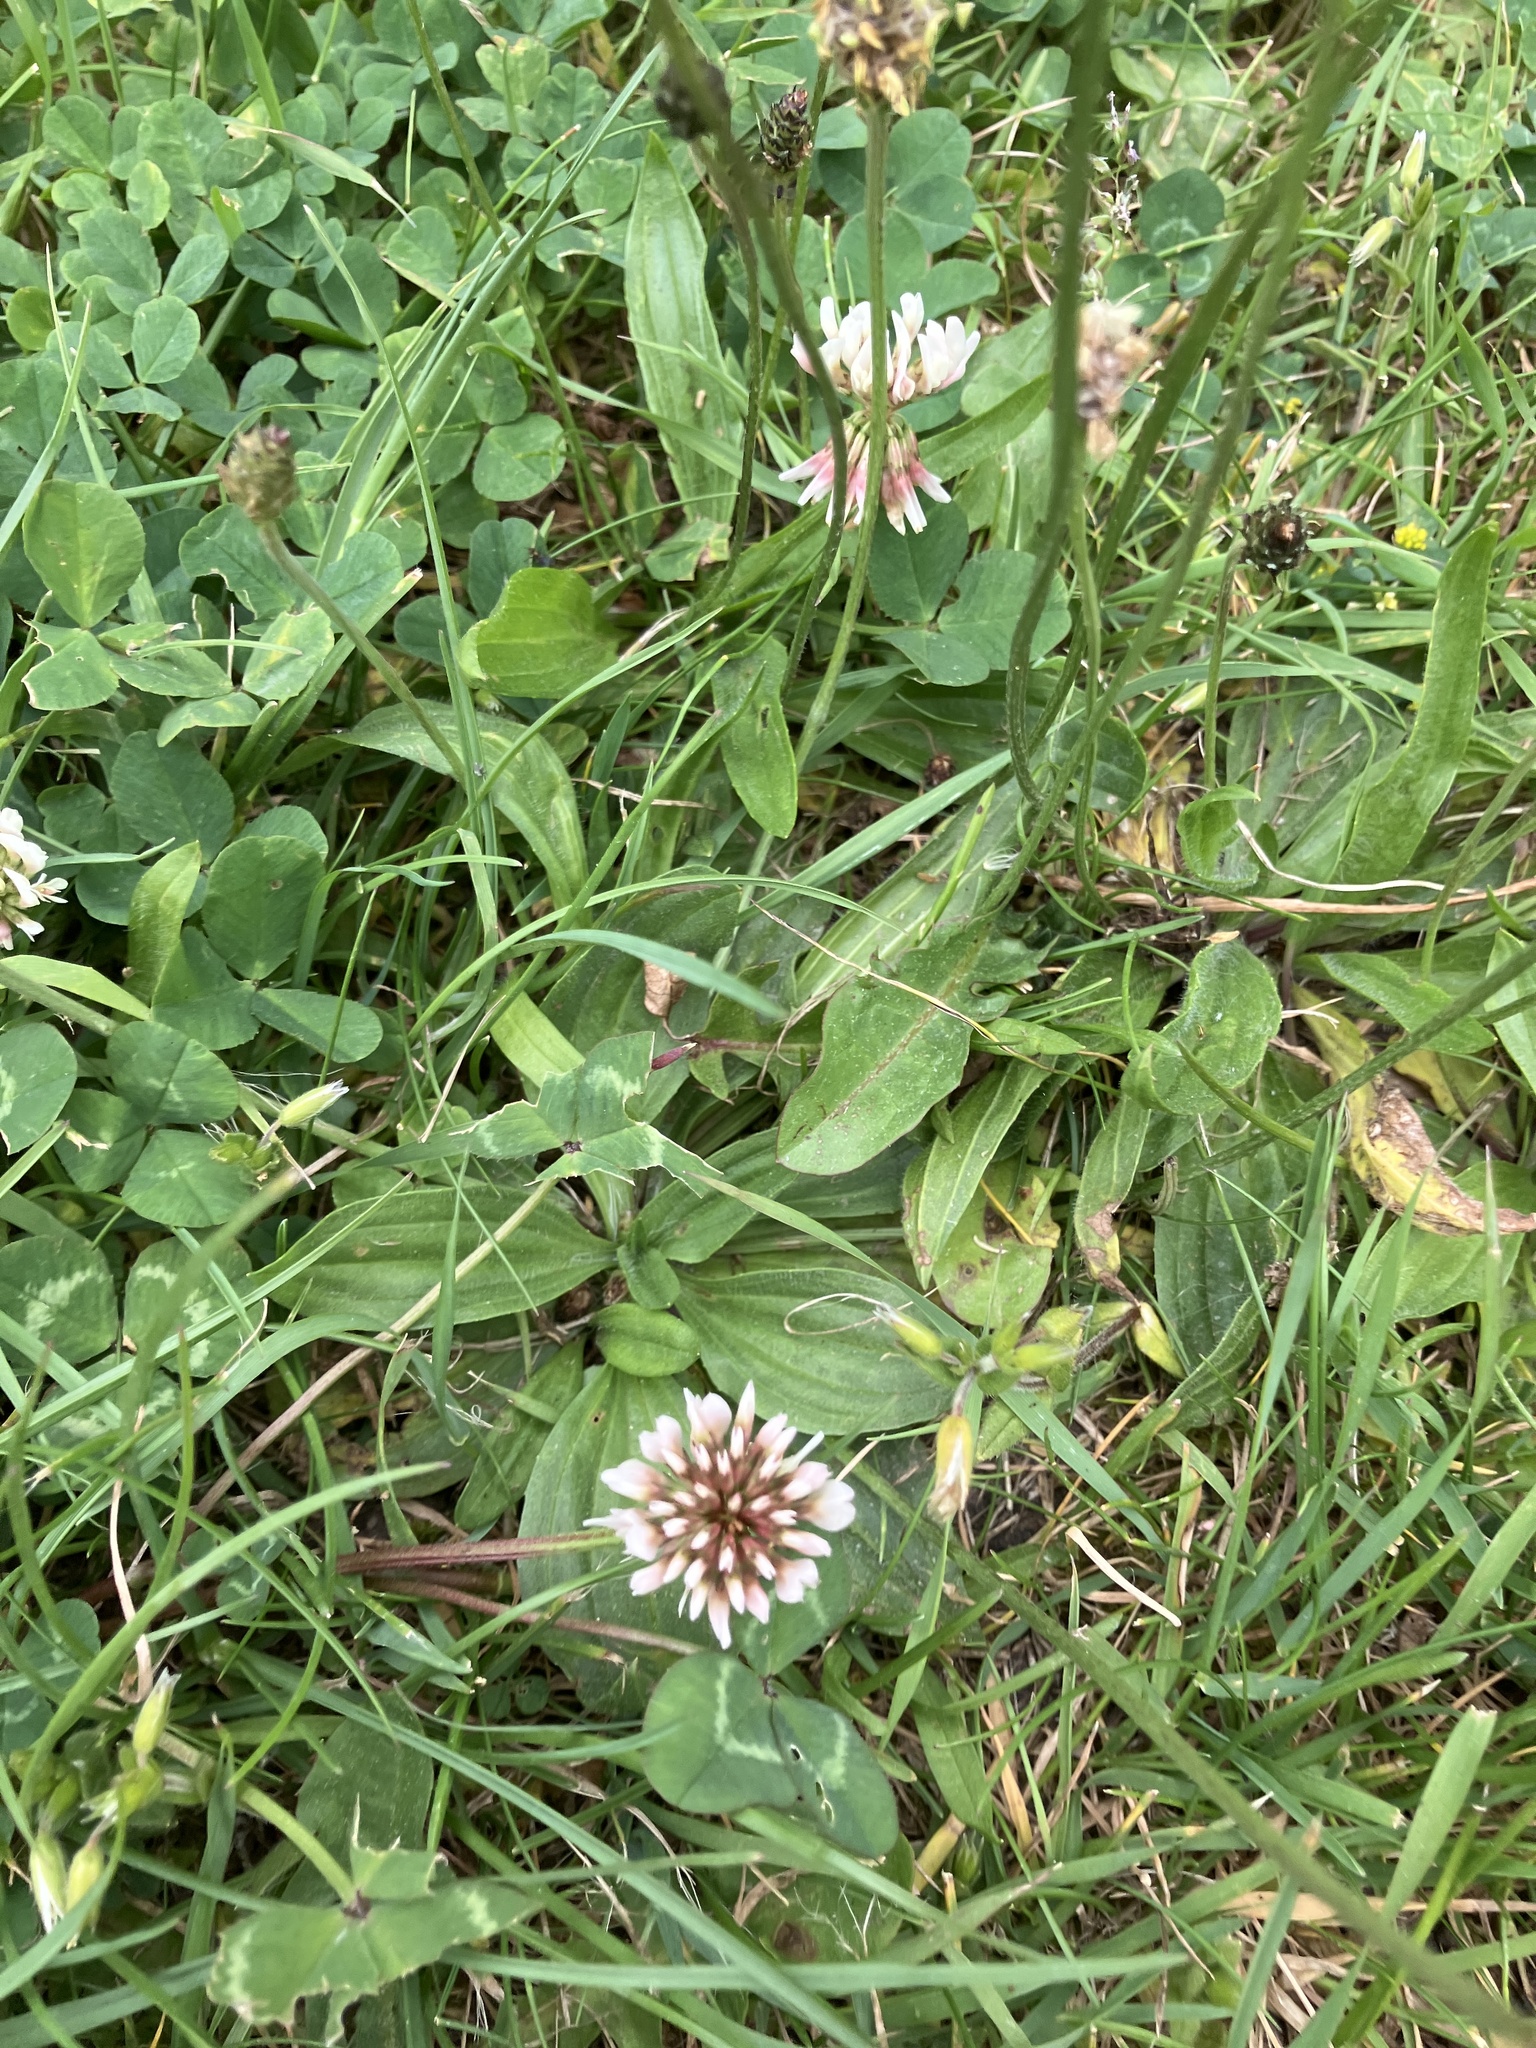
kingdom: Plantae
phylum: Tracheophyta
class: Magnoliopsida
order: Fabales
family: Fabaceae
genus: Trifolium
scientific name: Trifolium repens
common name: White clover
